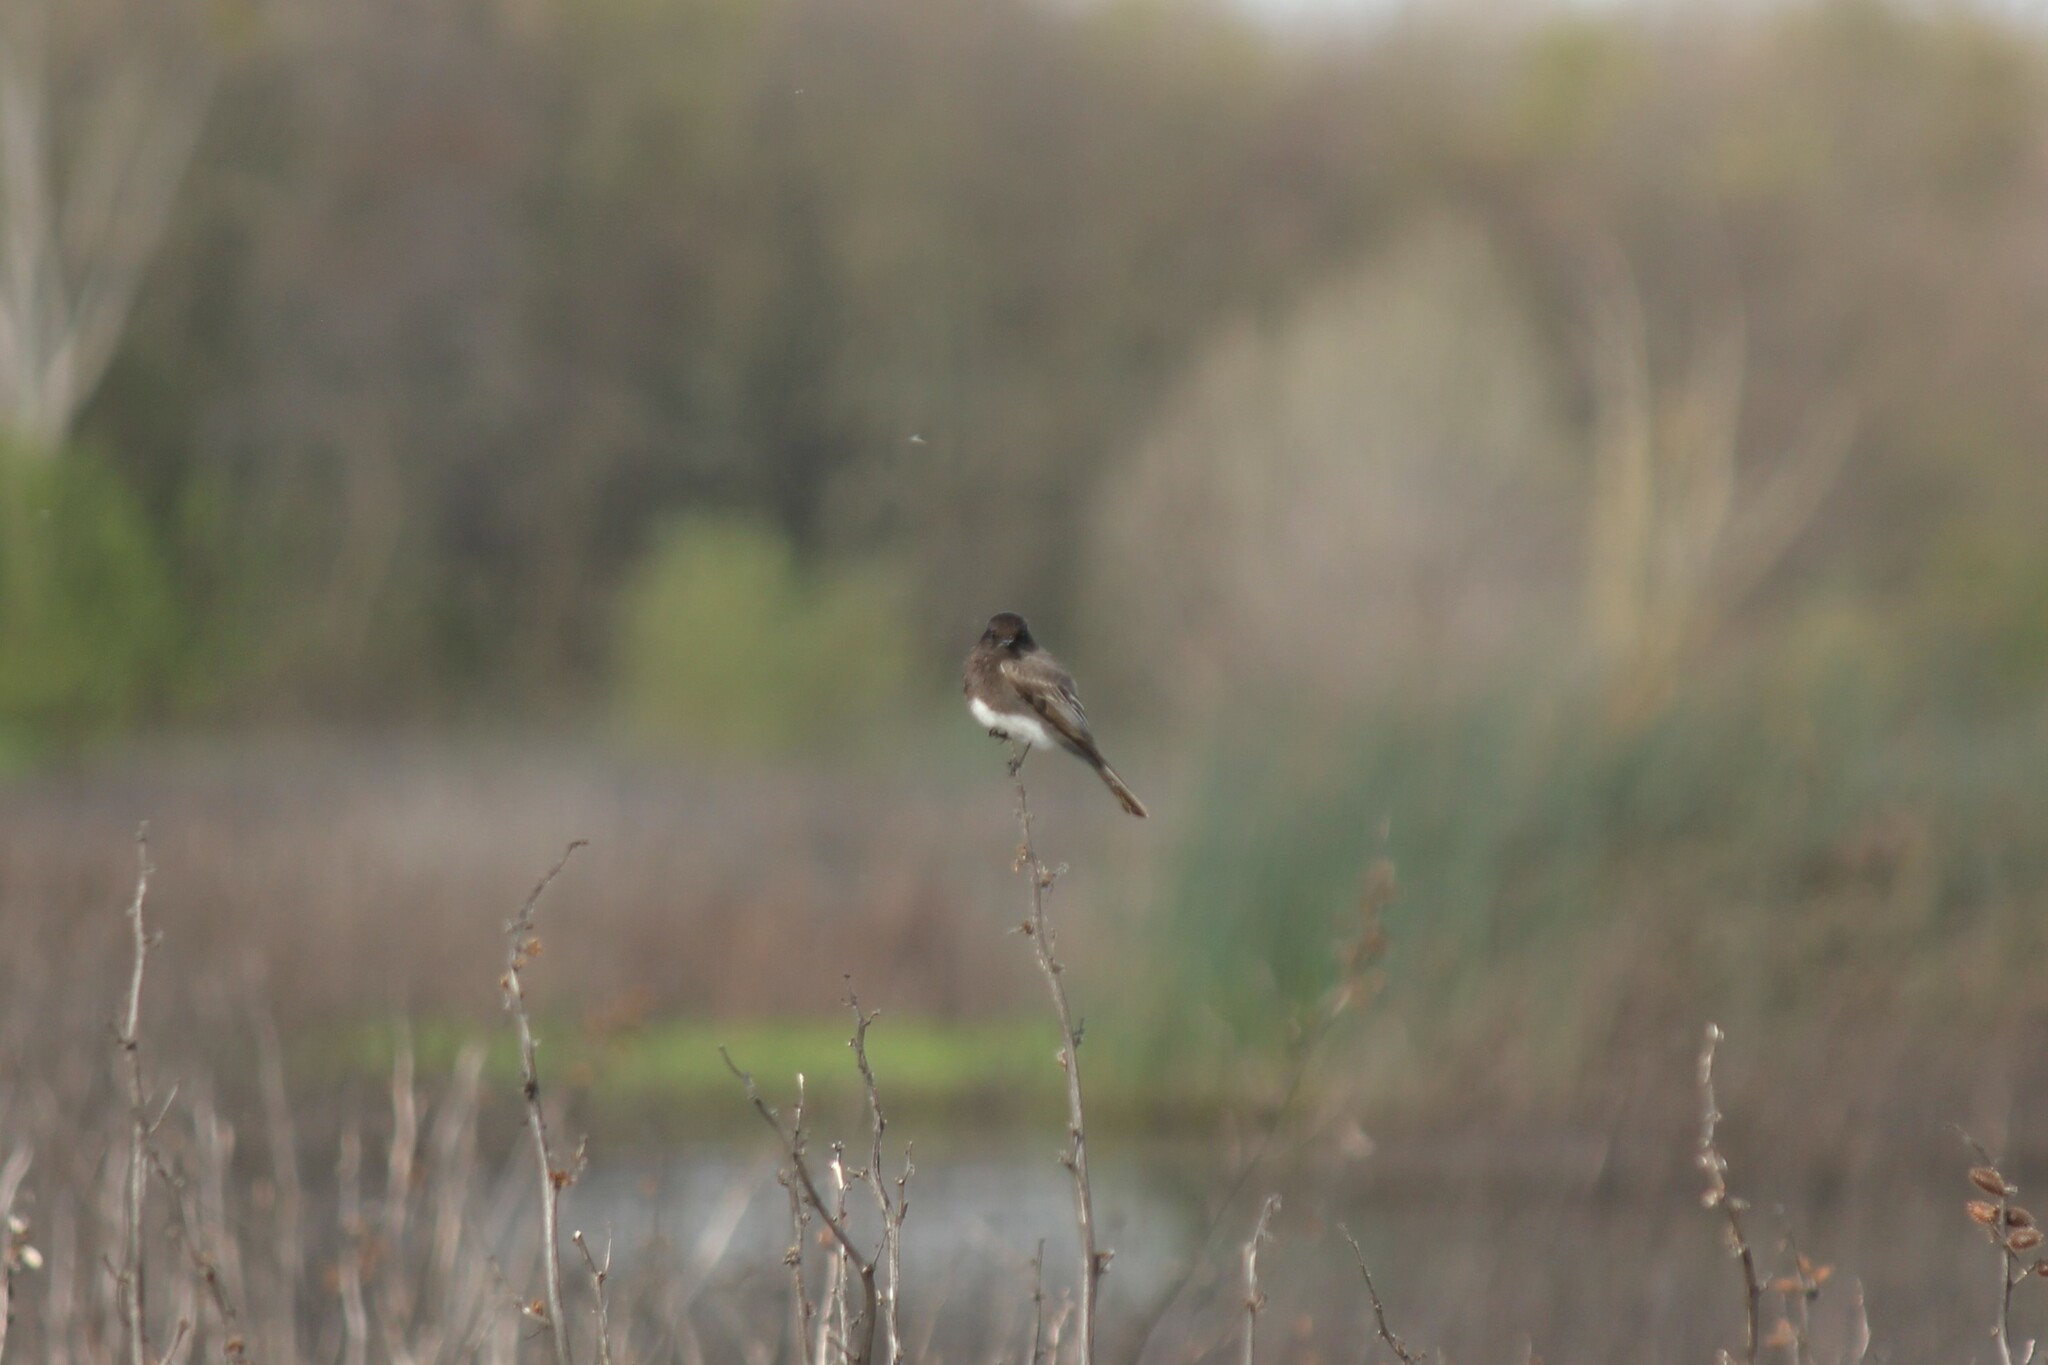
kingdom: Animalia
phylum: Chordata
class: Aves
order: Passeriformes
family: Tyrannidae
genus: Sayornis
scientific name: Sayornis nigricans
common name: Black phoebe
